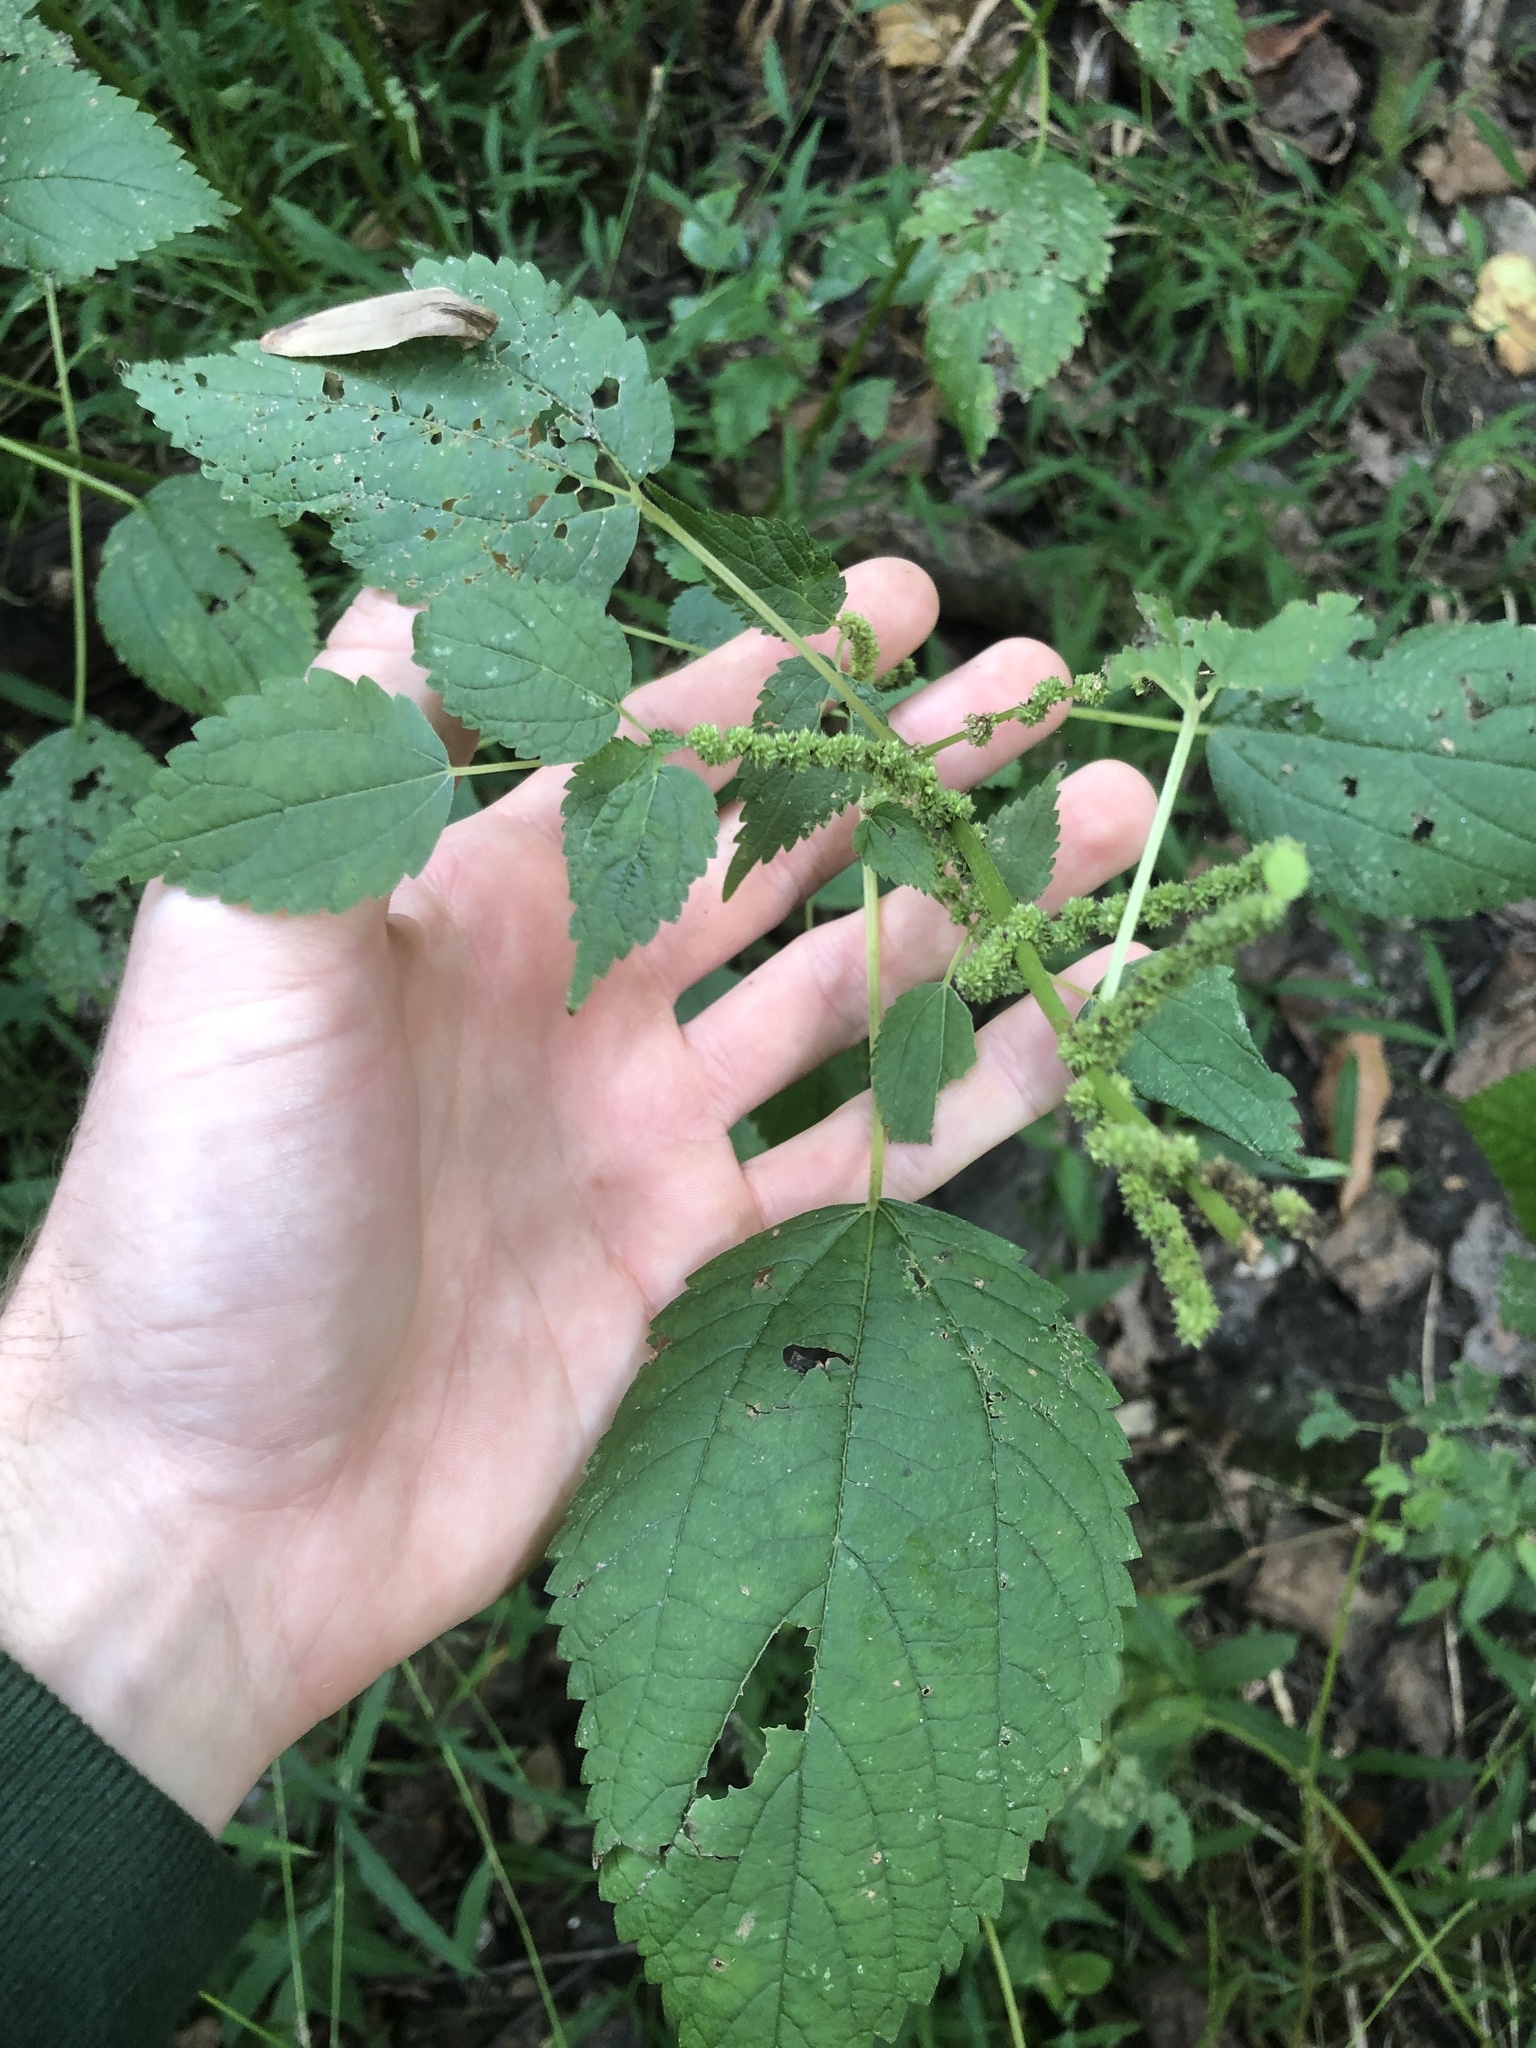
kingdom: Plantae
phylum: Tracheophyta
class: Magnoliopsida
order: Rosales
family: Urticaceae
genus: Boehmeria
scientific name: Boehmeria cylindrica
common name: Bog-hemp
